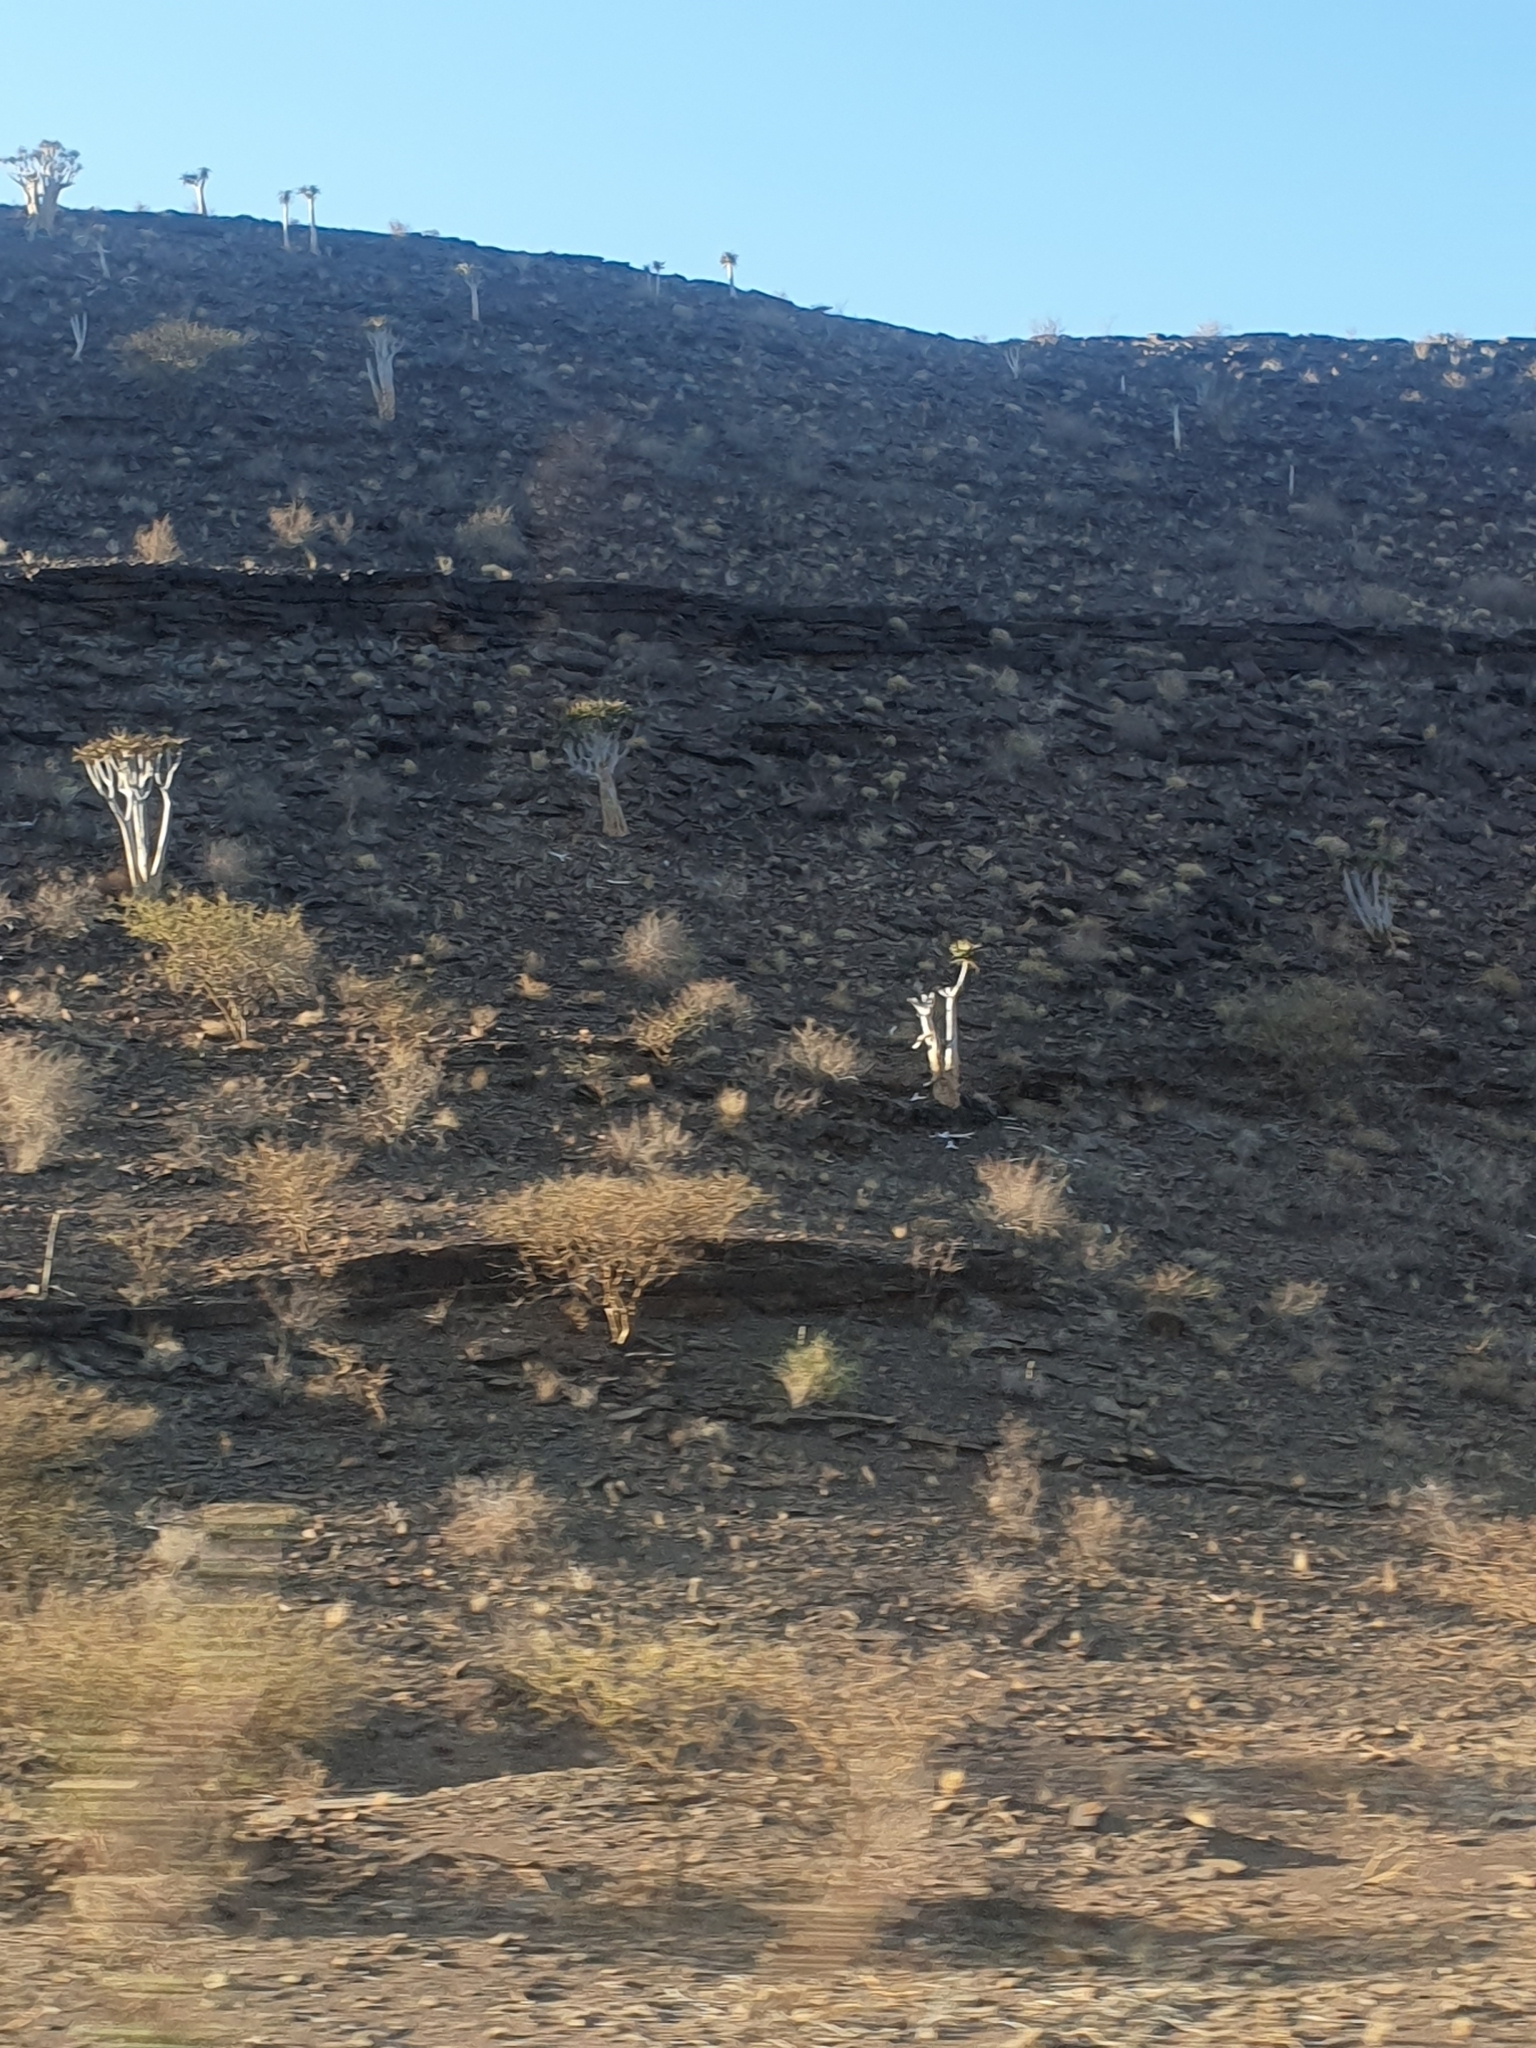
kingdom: Plantae
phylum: Tracheophyta
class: Liliopsida
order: Asparagales
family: Asphodelaceae
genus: Aloidendron
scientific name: Aloidendron dichotomum
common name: Quiver tree
